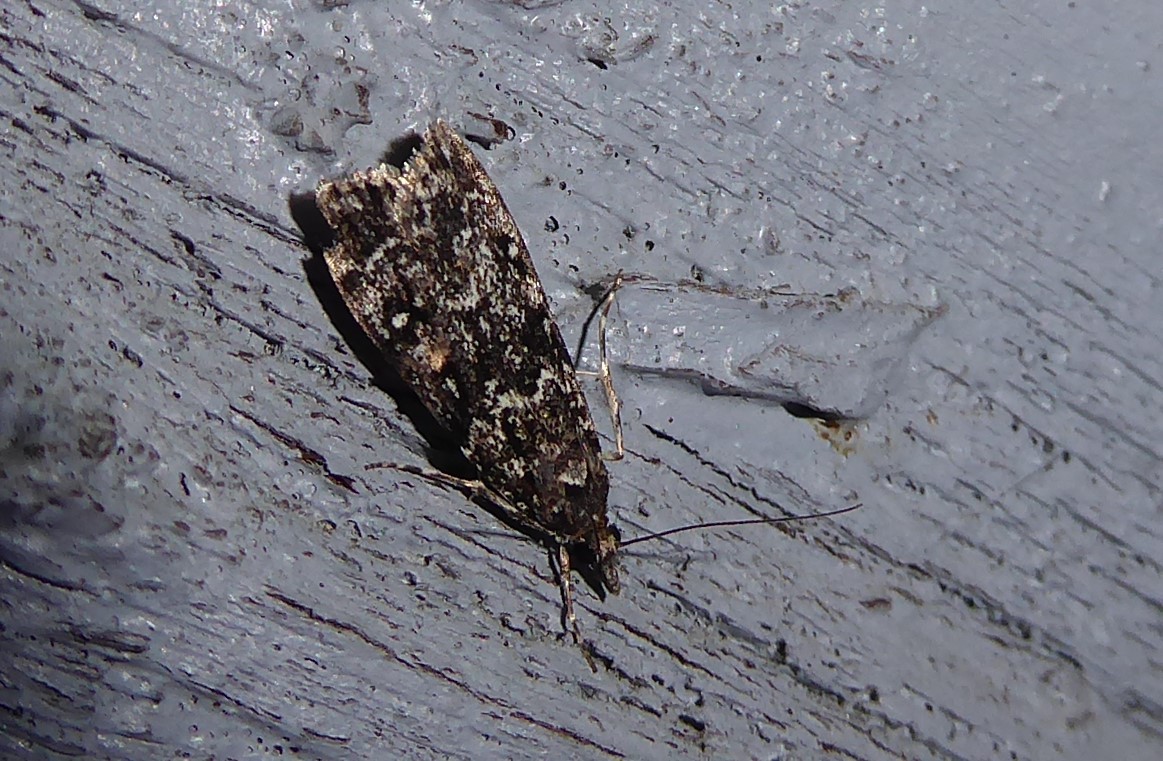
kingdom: Animalia
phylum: Arthropoda
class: Insecta
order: Lepidoptera
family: Crambidae
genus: Eudonia
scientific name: Eudonia philerga
